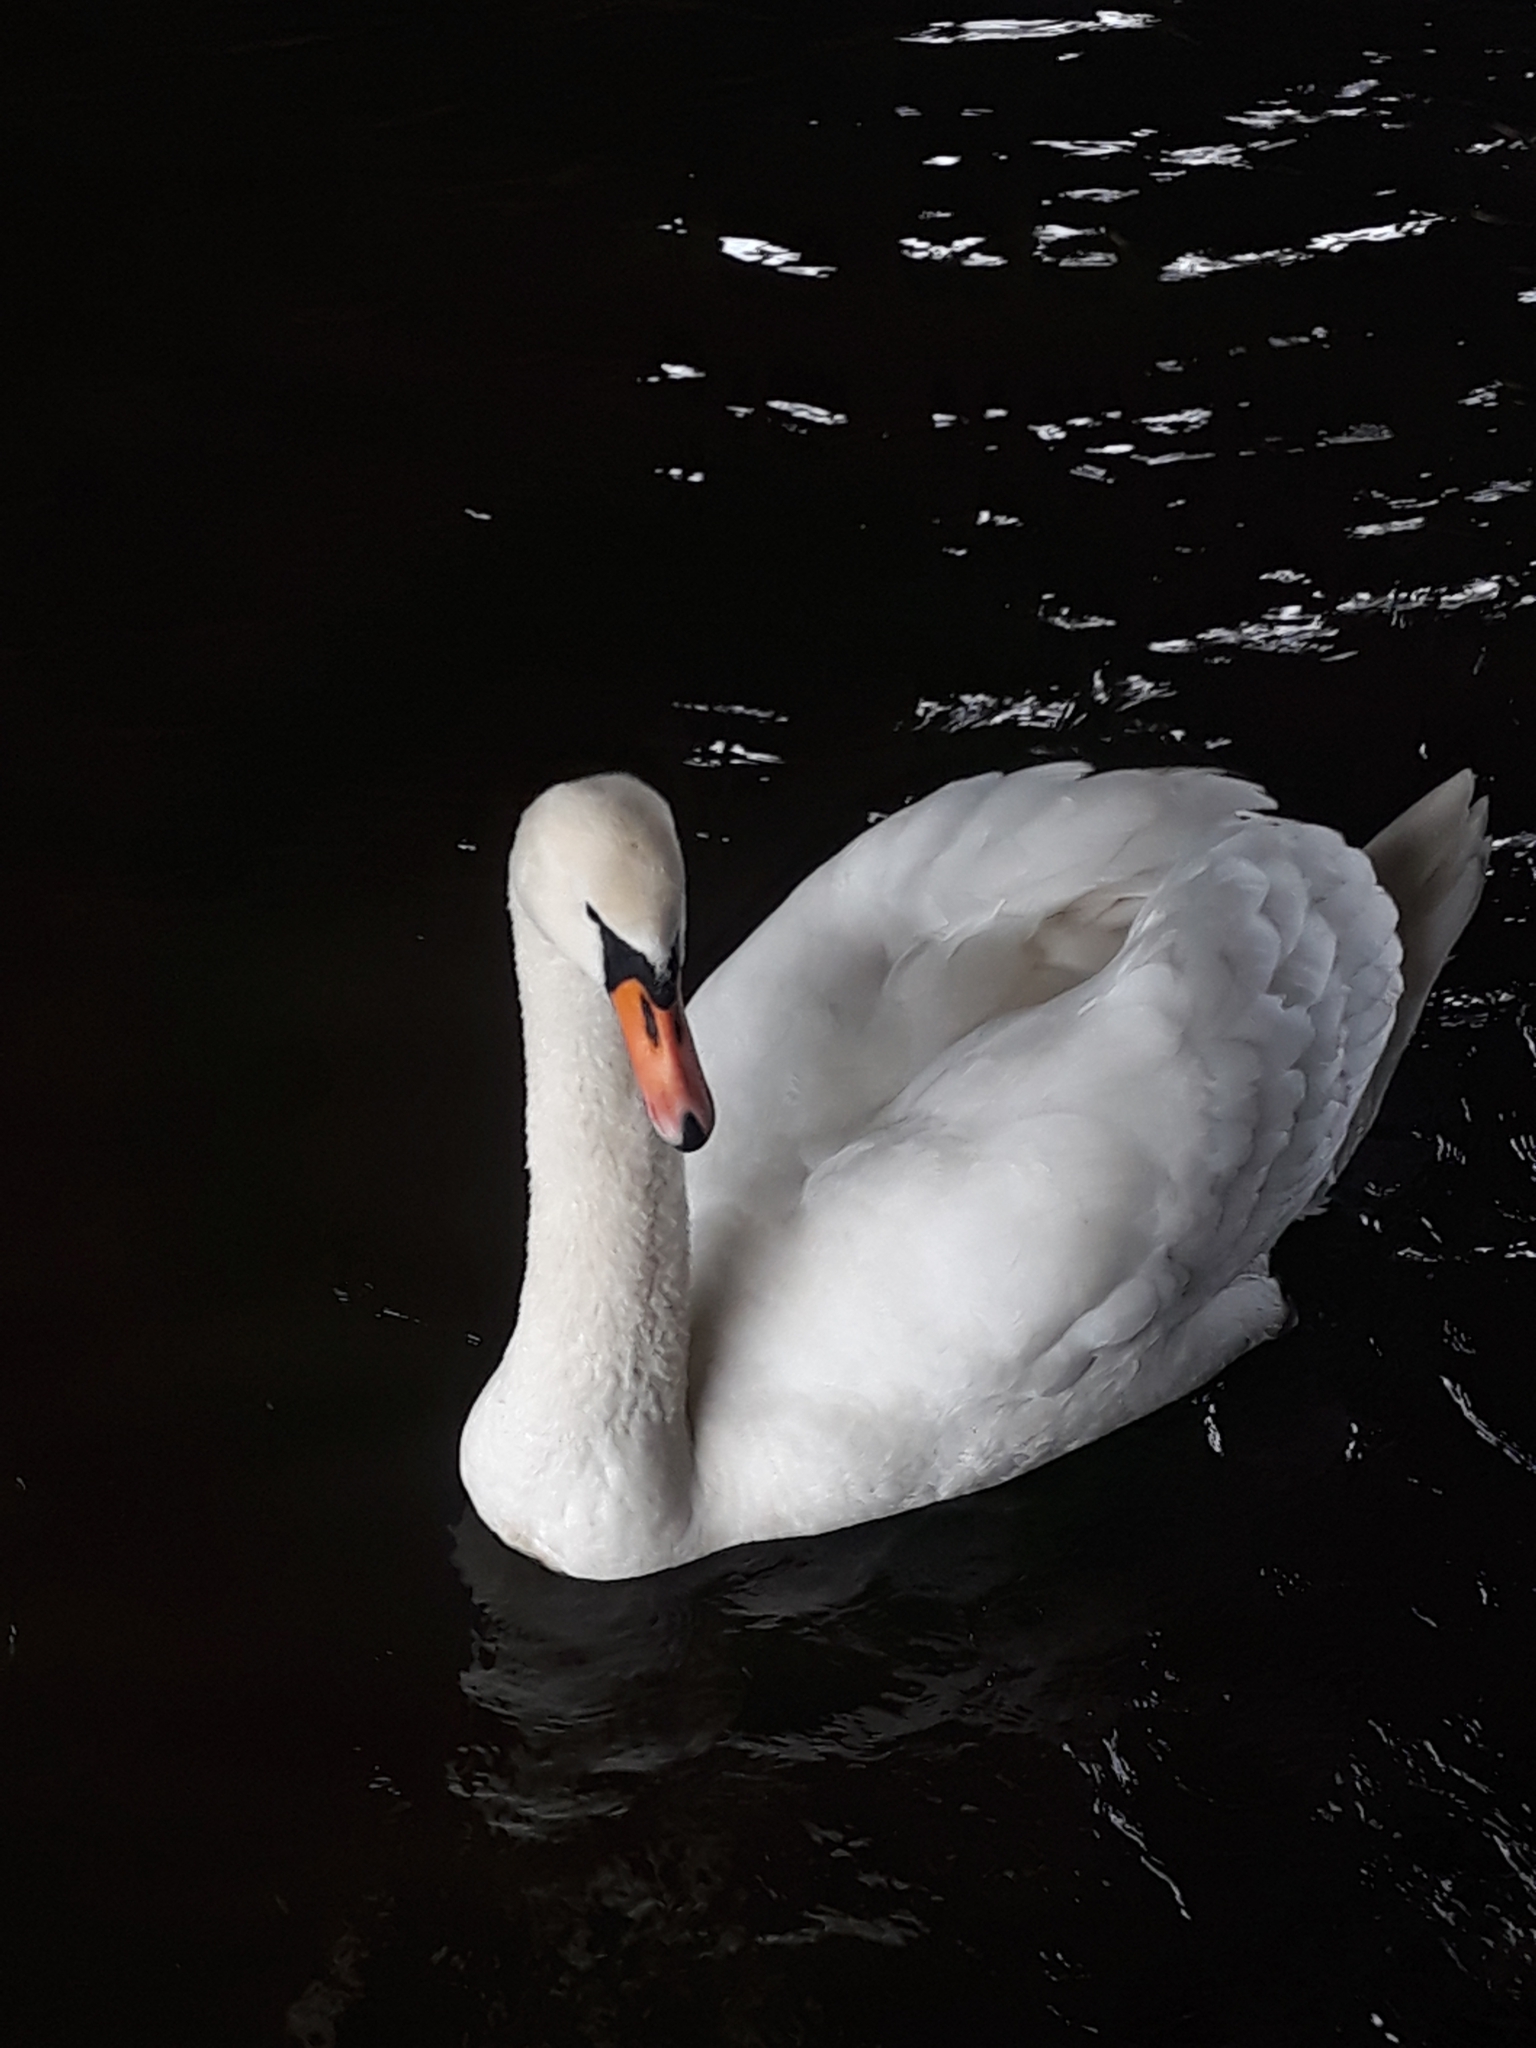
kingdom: Animalia
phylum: Chordata
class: Aves
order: Anseriformes
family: Anatidae
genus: Cygnus
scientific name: Cygnus olor
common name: Mute swan
